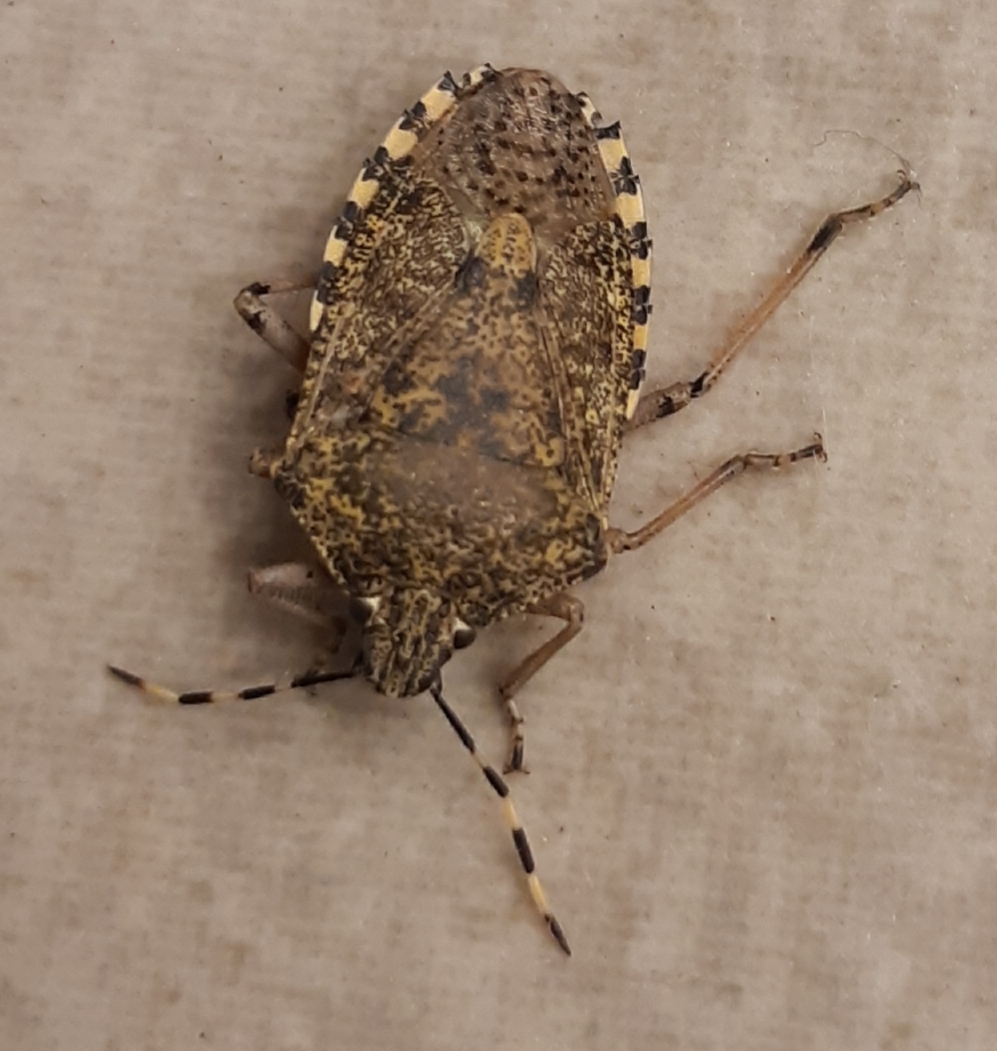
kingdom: Animalia
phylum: Arthropoda
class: Insecta
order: Hemiptera
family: Pentatomidae
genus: Rhaphigaster
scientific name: Rhaphigaster nebulosa
